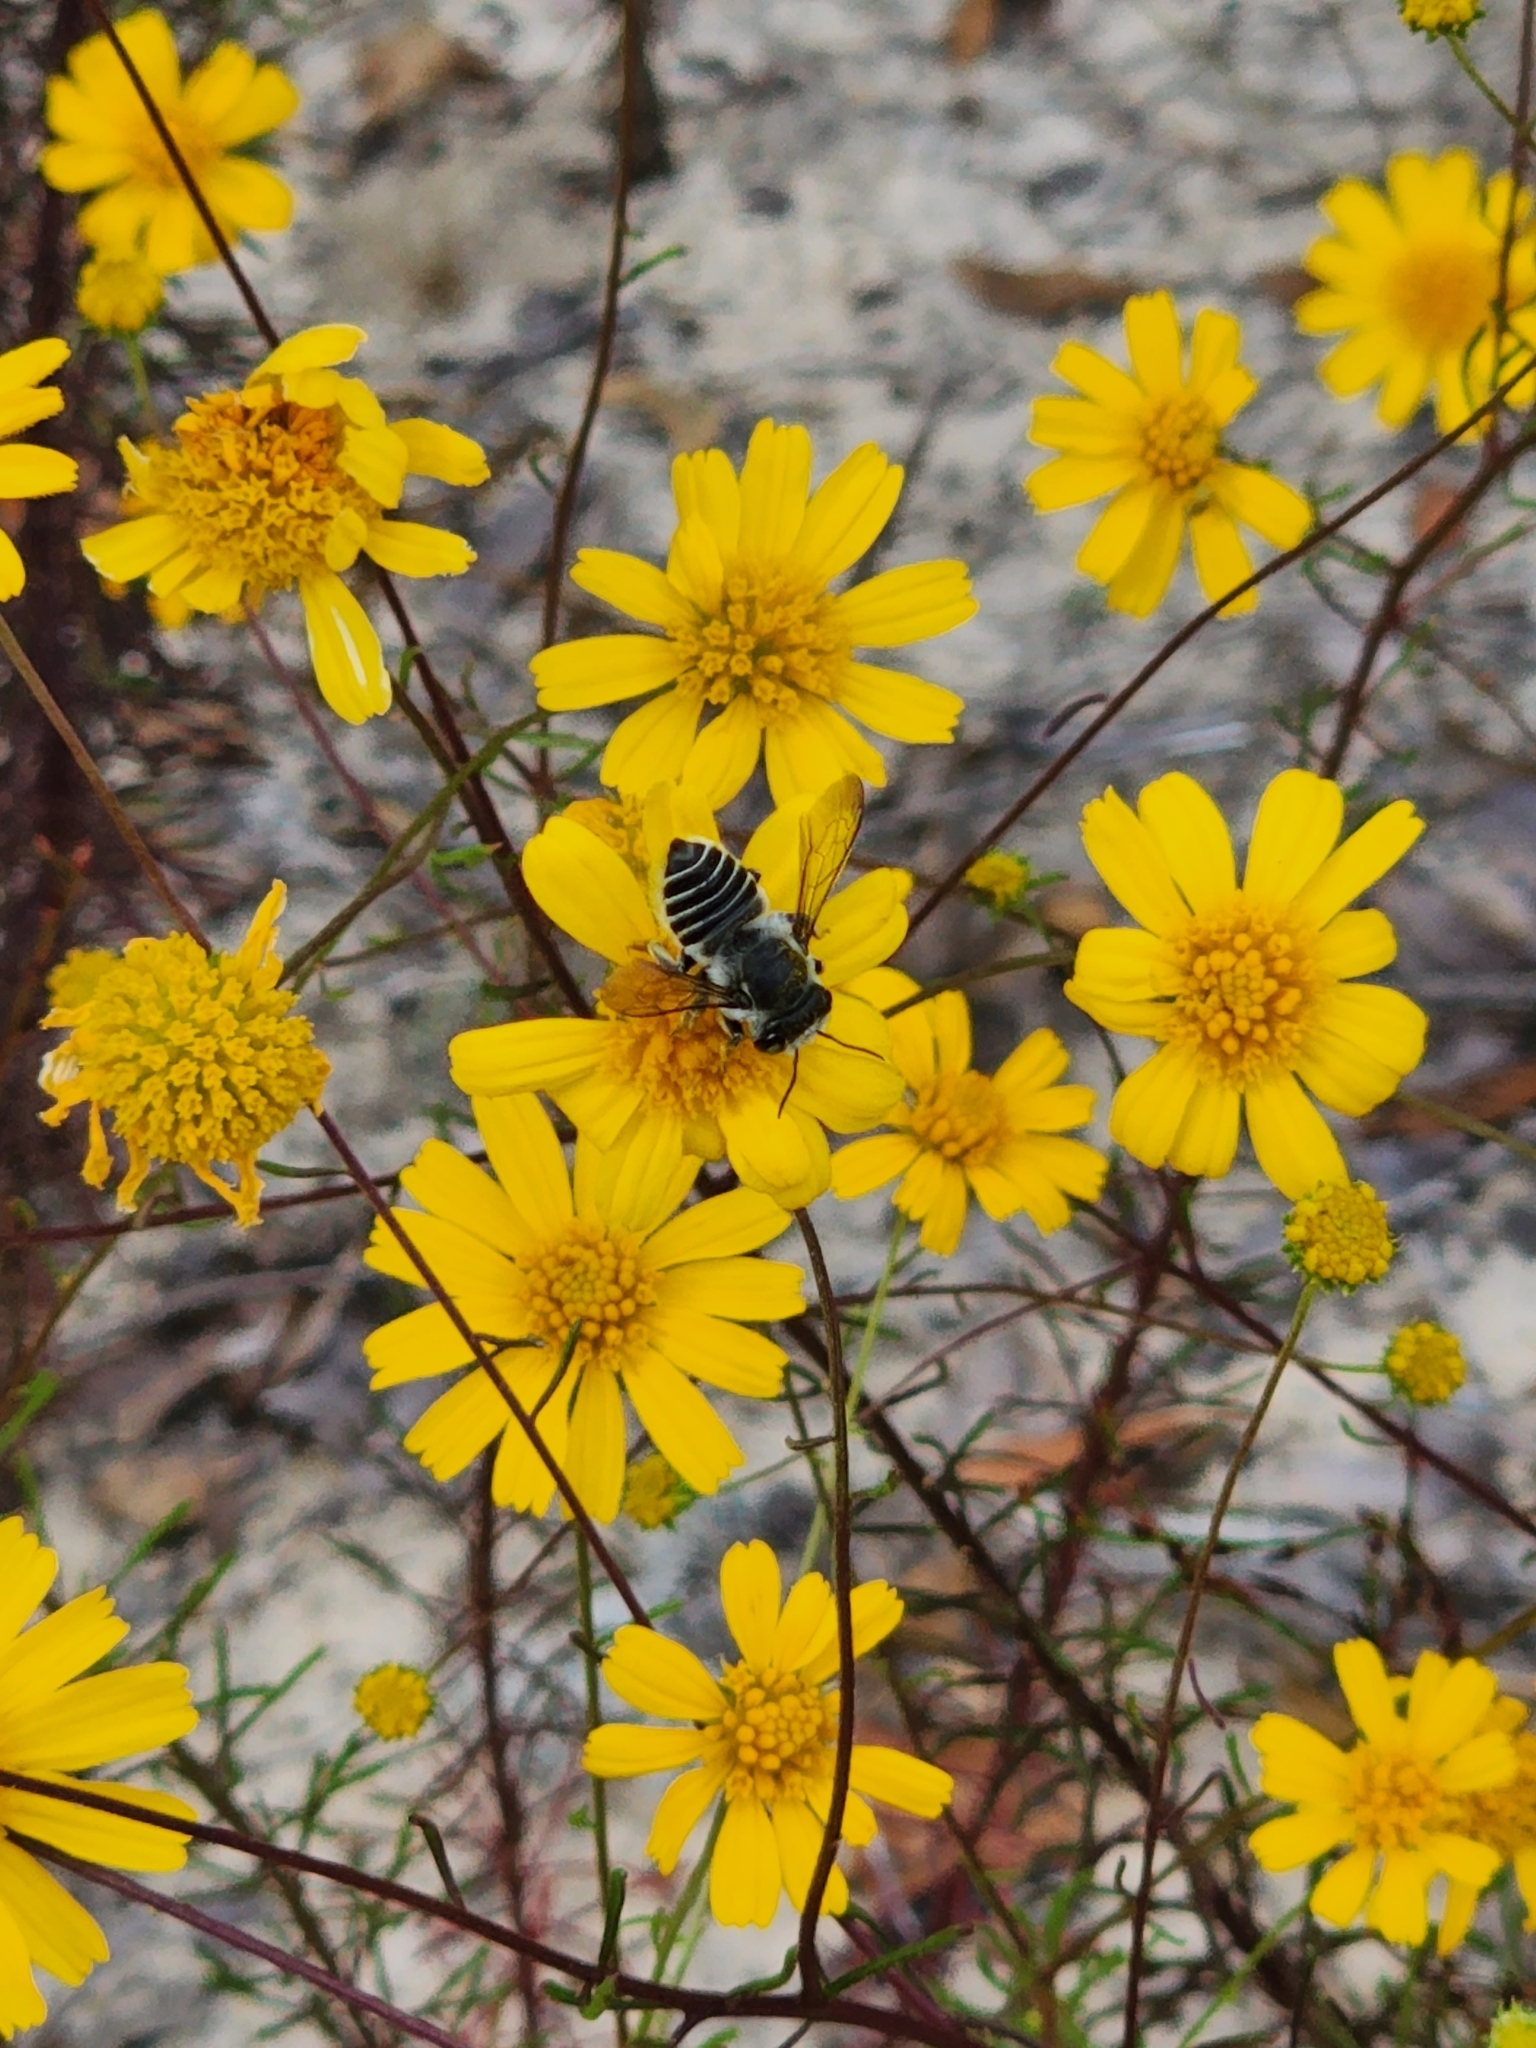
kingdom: Plantae
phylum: Tracheophyta
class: Magnoliopsida
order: Asterales
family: Asteraceae
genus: Balduina
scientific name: Balduina angustifolia
